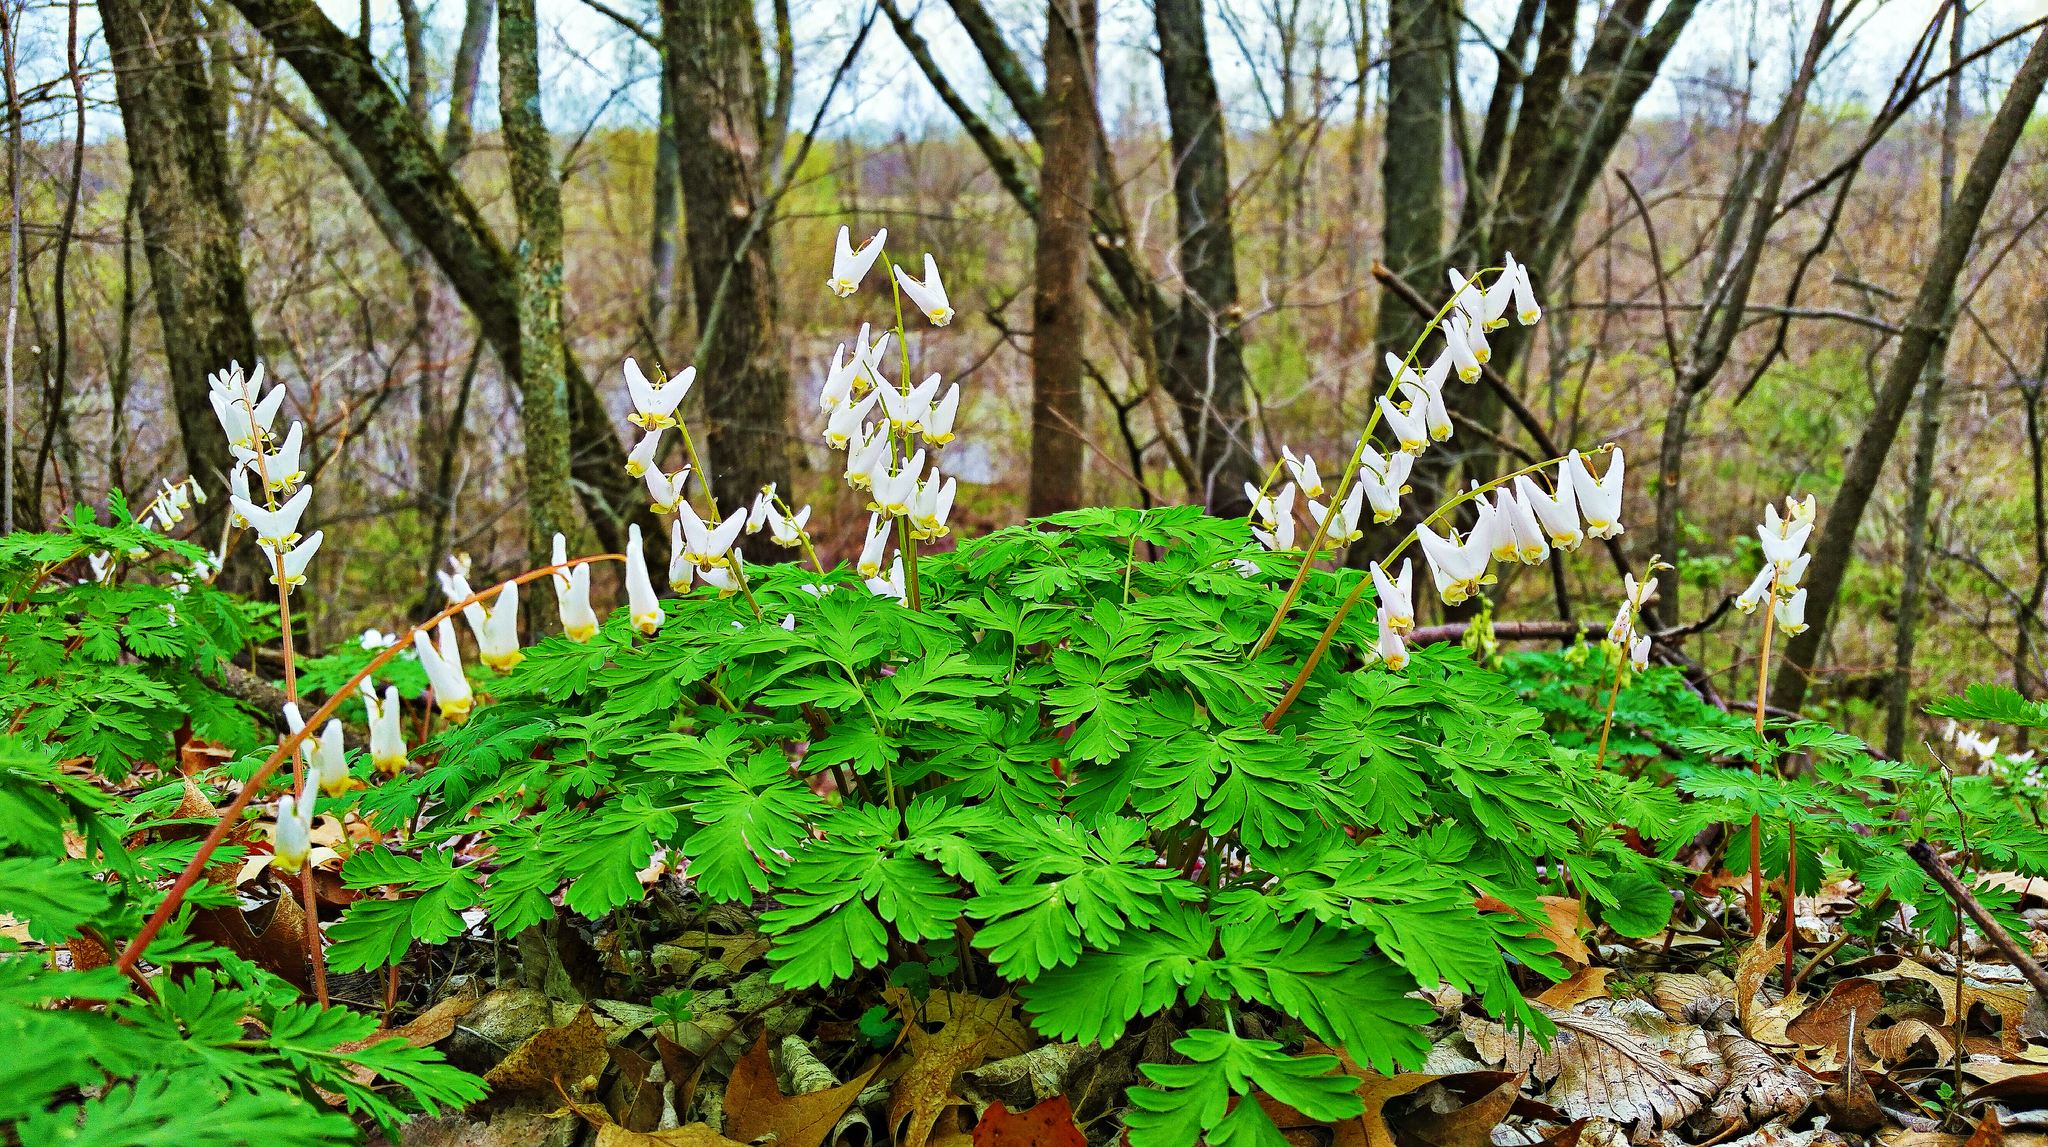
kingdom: Plantae
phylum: Tracheophyta
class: Magnoliopsida
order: Ranunculales
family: Papaveraceae
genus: Dicentra
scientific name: Dicentra cucullaria
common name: Dutchman's breeches
